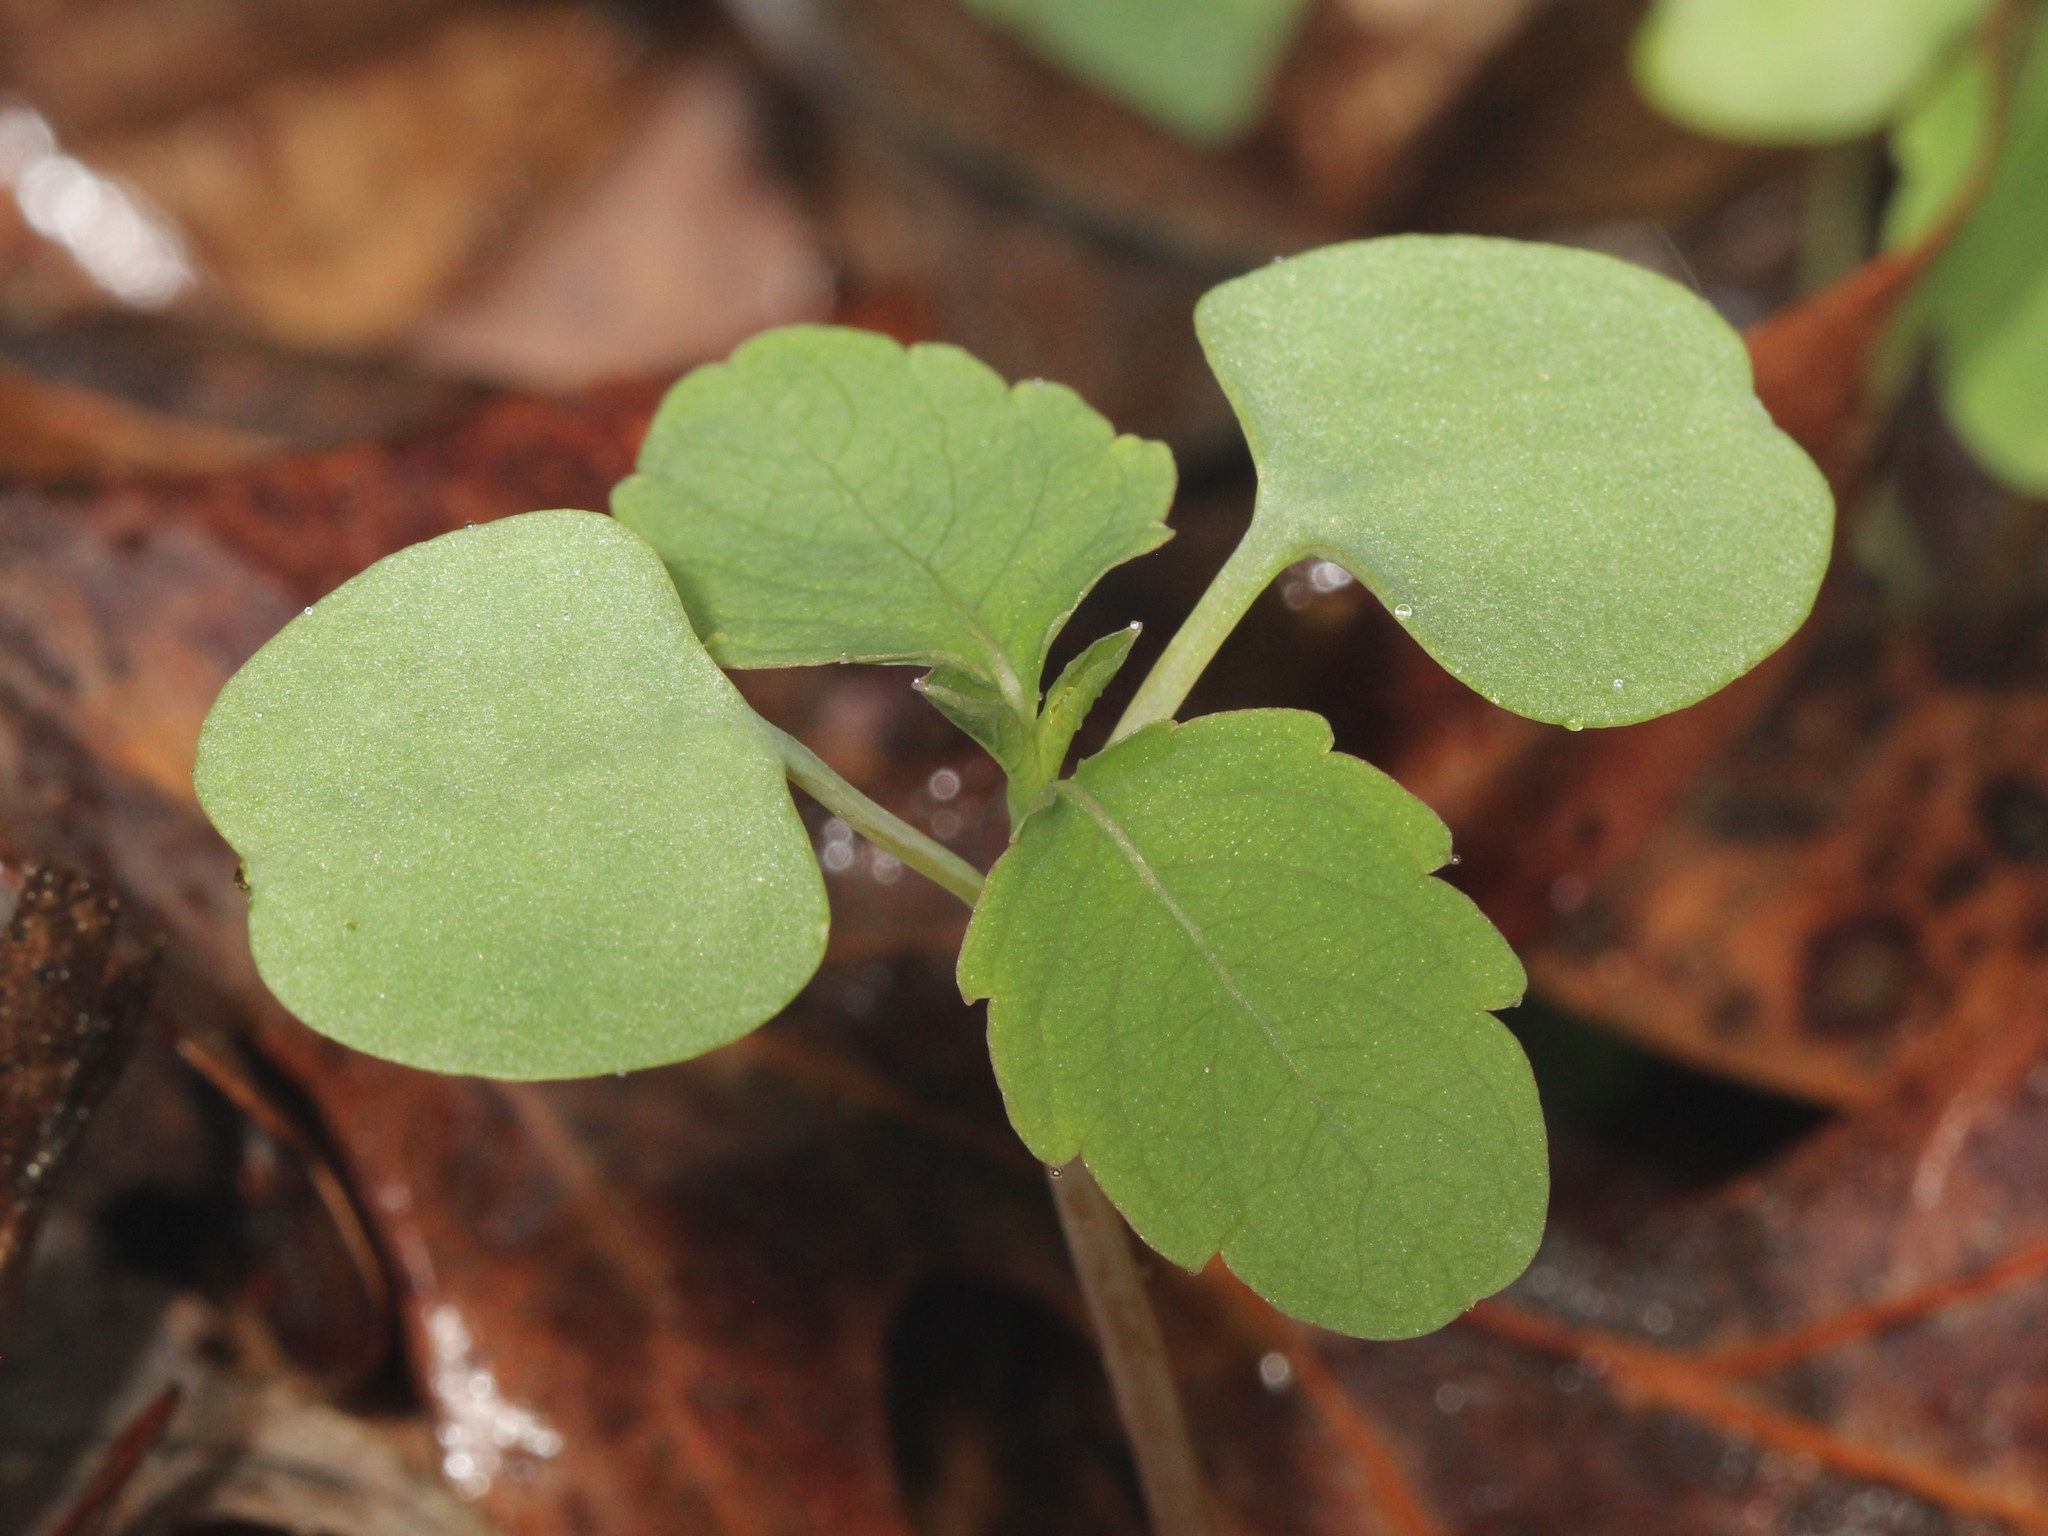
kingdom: Plantae
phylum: Tracheophyta
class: Magnoliopsida
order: Ericales
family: Balsaminaceae
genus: Impatiens
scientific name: Impatiens
